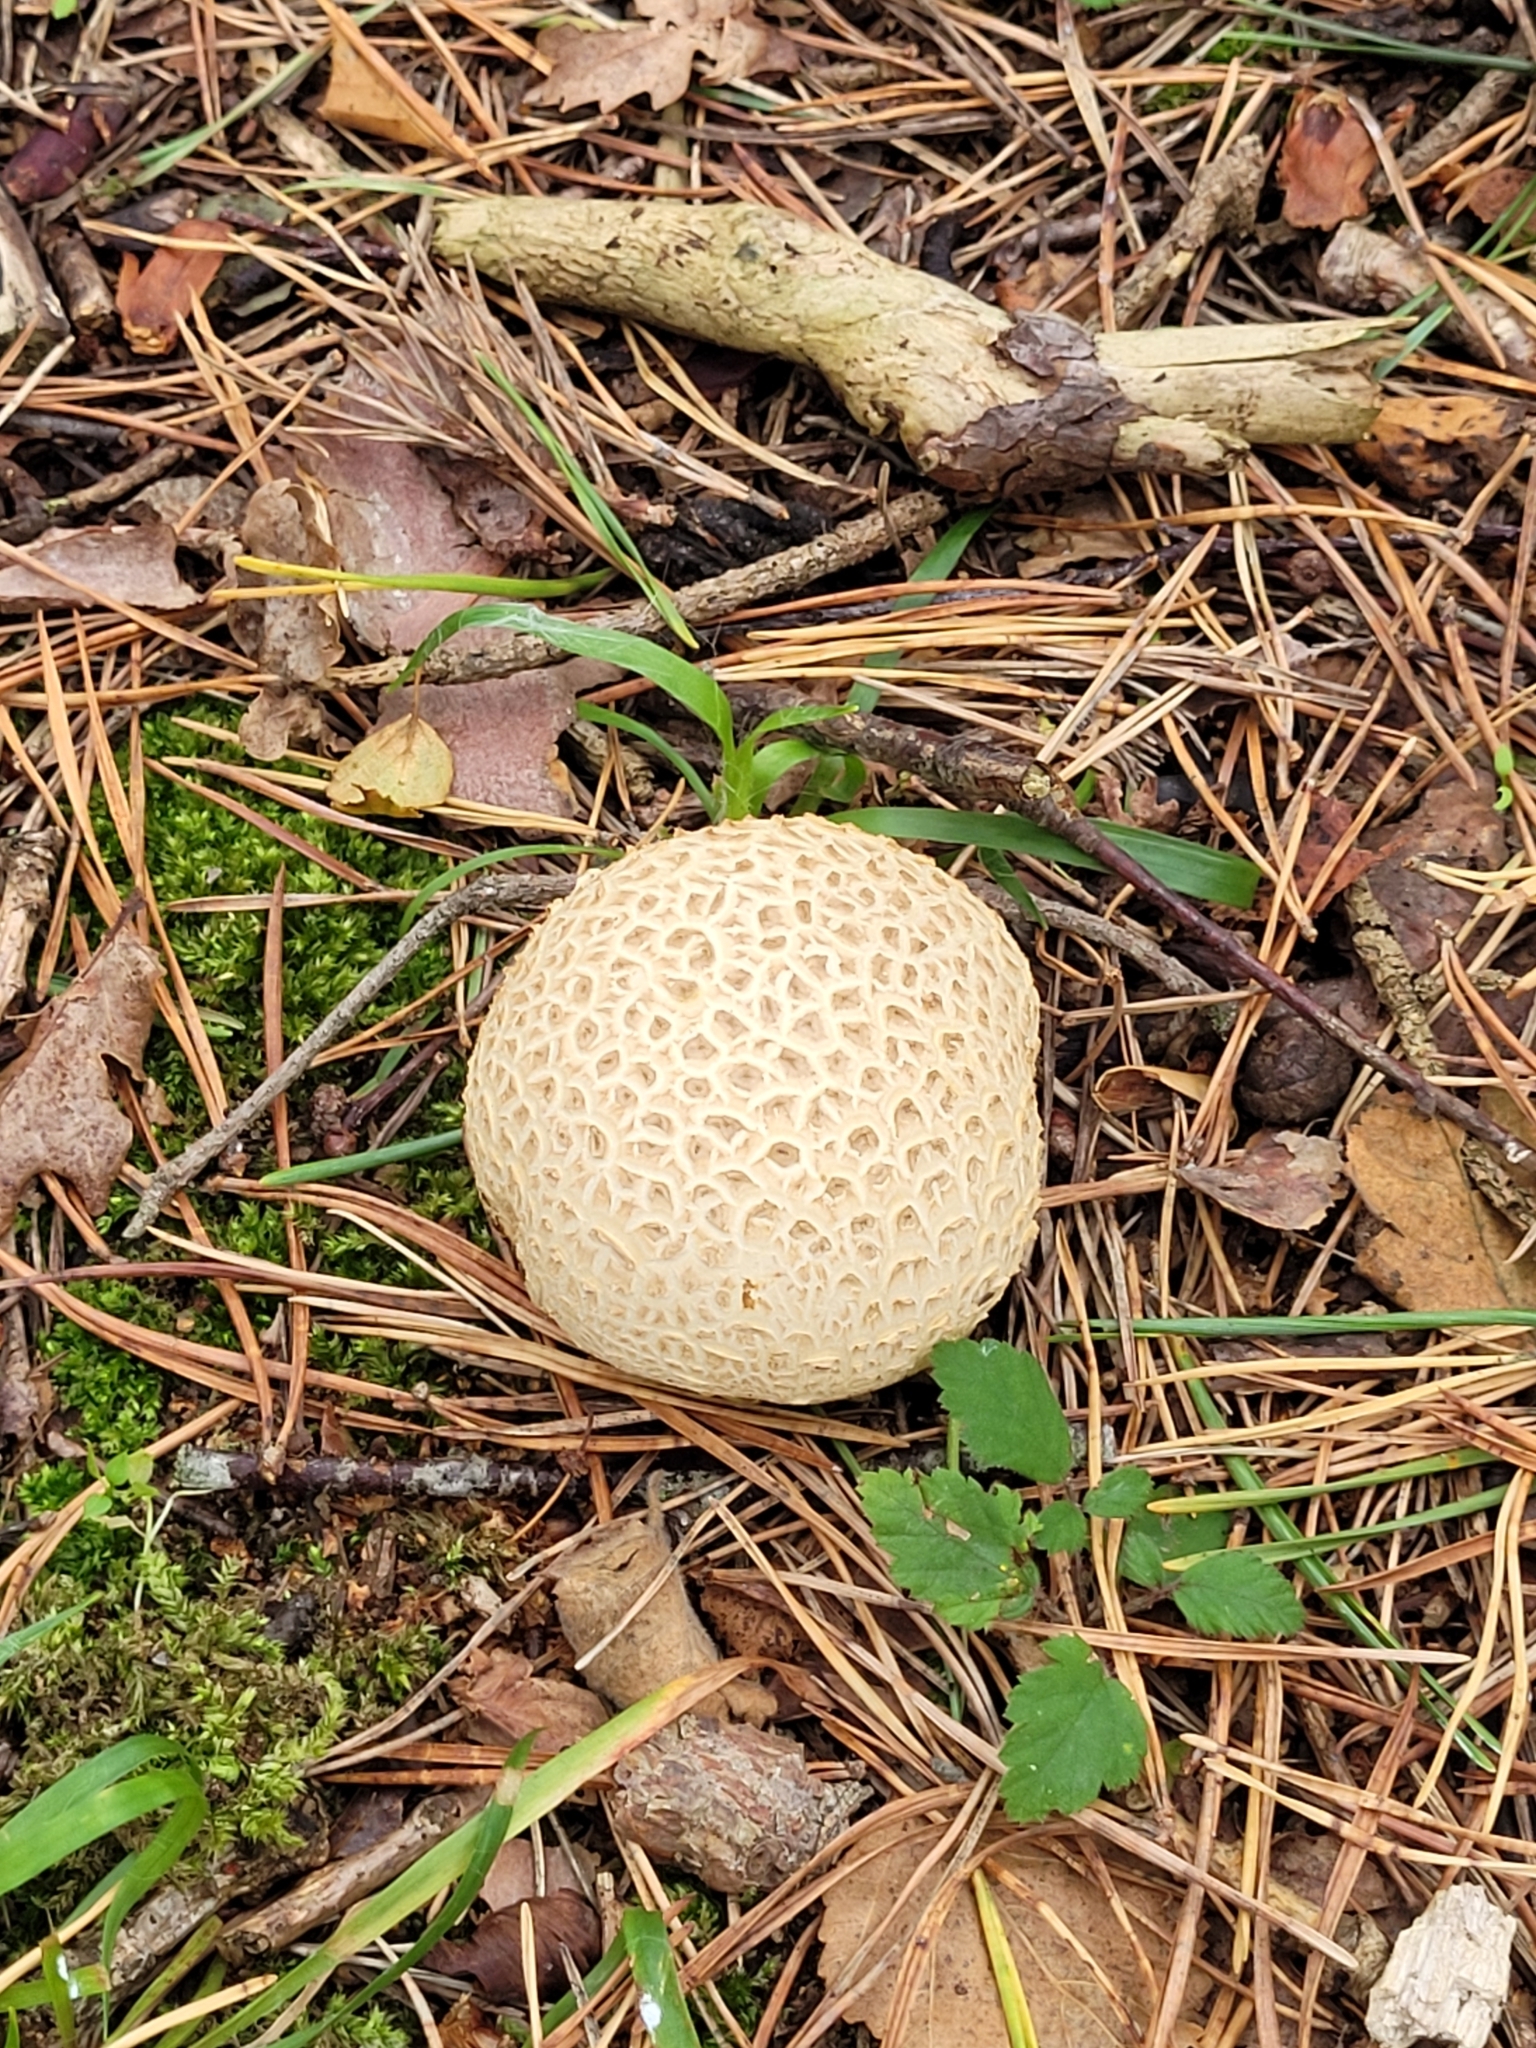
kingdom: Fungi
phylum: Basidiomycota
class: Agaricomycetes
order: Boletales
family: Sclerodermataceae
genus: Scleroderma
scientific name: Scleroderma citrinum
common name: Common earthball
